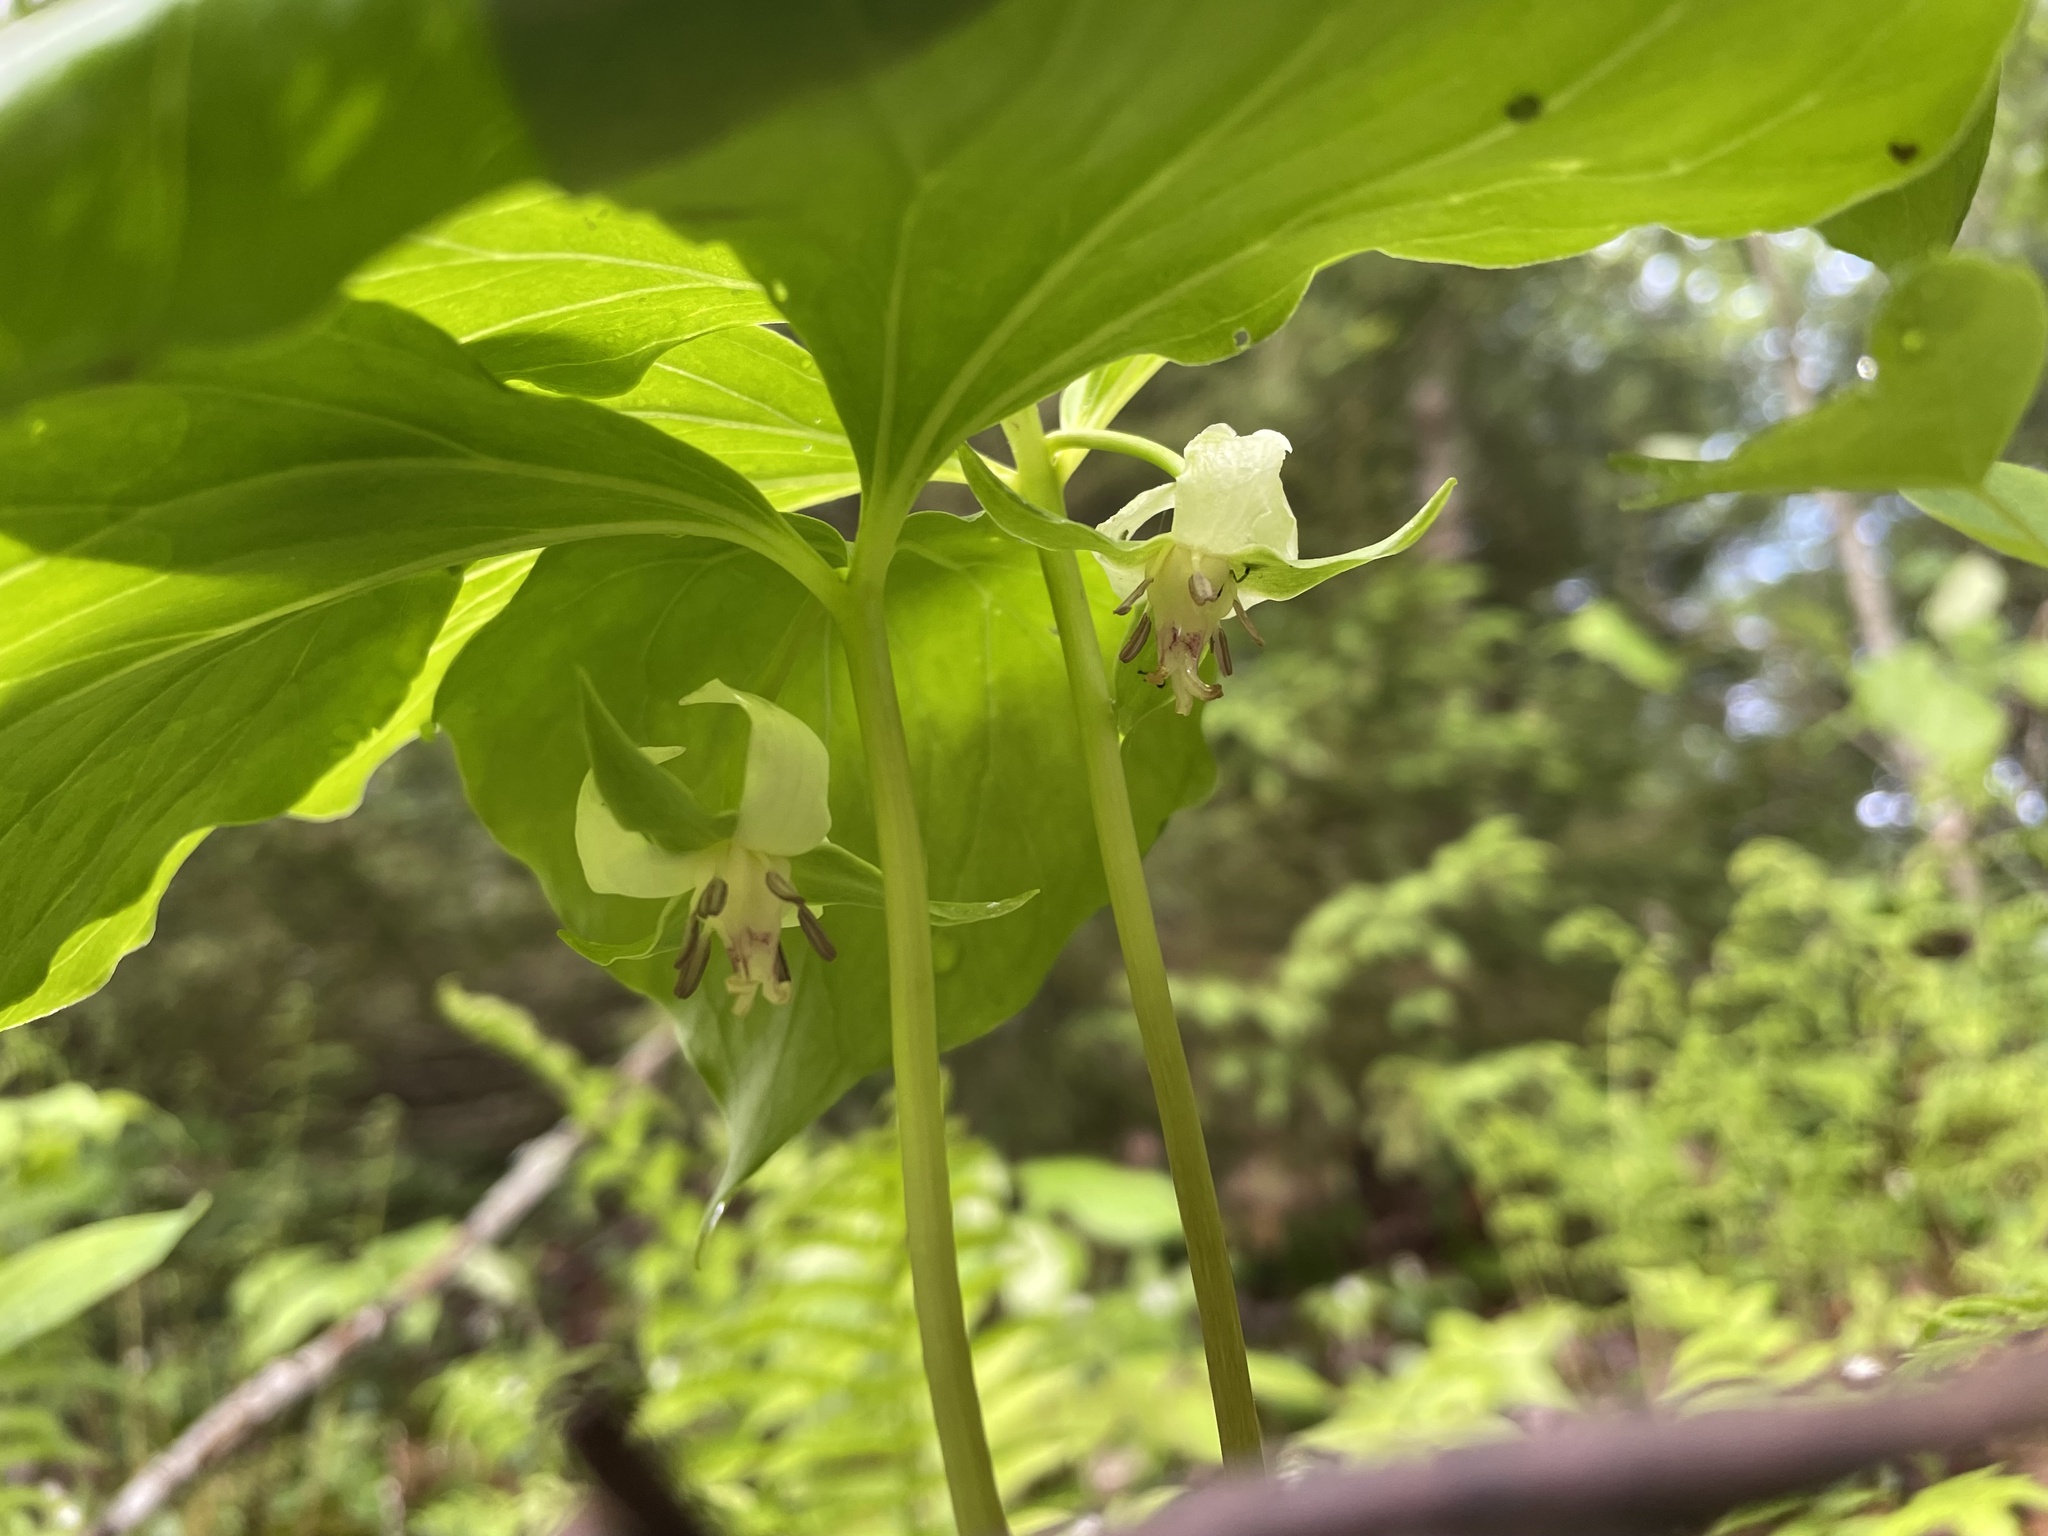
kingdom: Plantae
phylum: Tracheophyta
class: Liliopsida
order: Liliales
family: Melanthiaceae
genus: Trillium
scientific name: Trillium cernuum
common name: Nodding trillium
